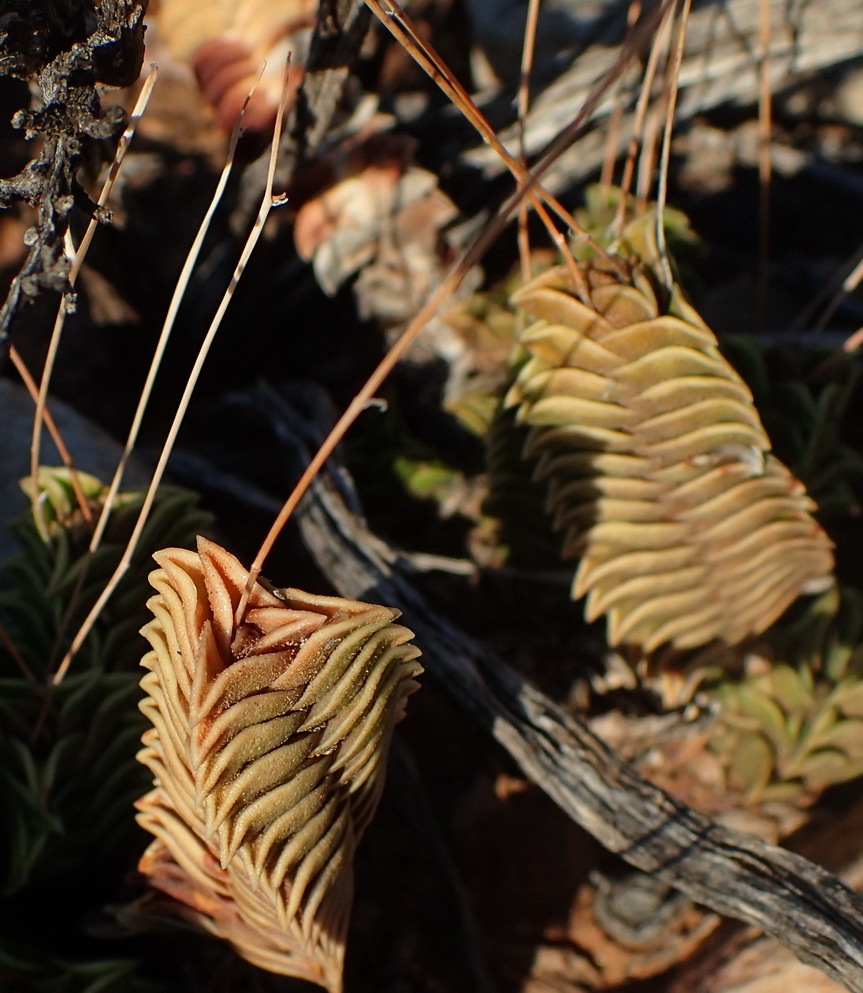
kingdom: Plantae
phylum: Tracheophyta
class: Liliopsida
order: Asparagales
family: Asphodelaceae
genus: Haworthiopsis
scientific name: Haworthiopsis viscosa
